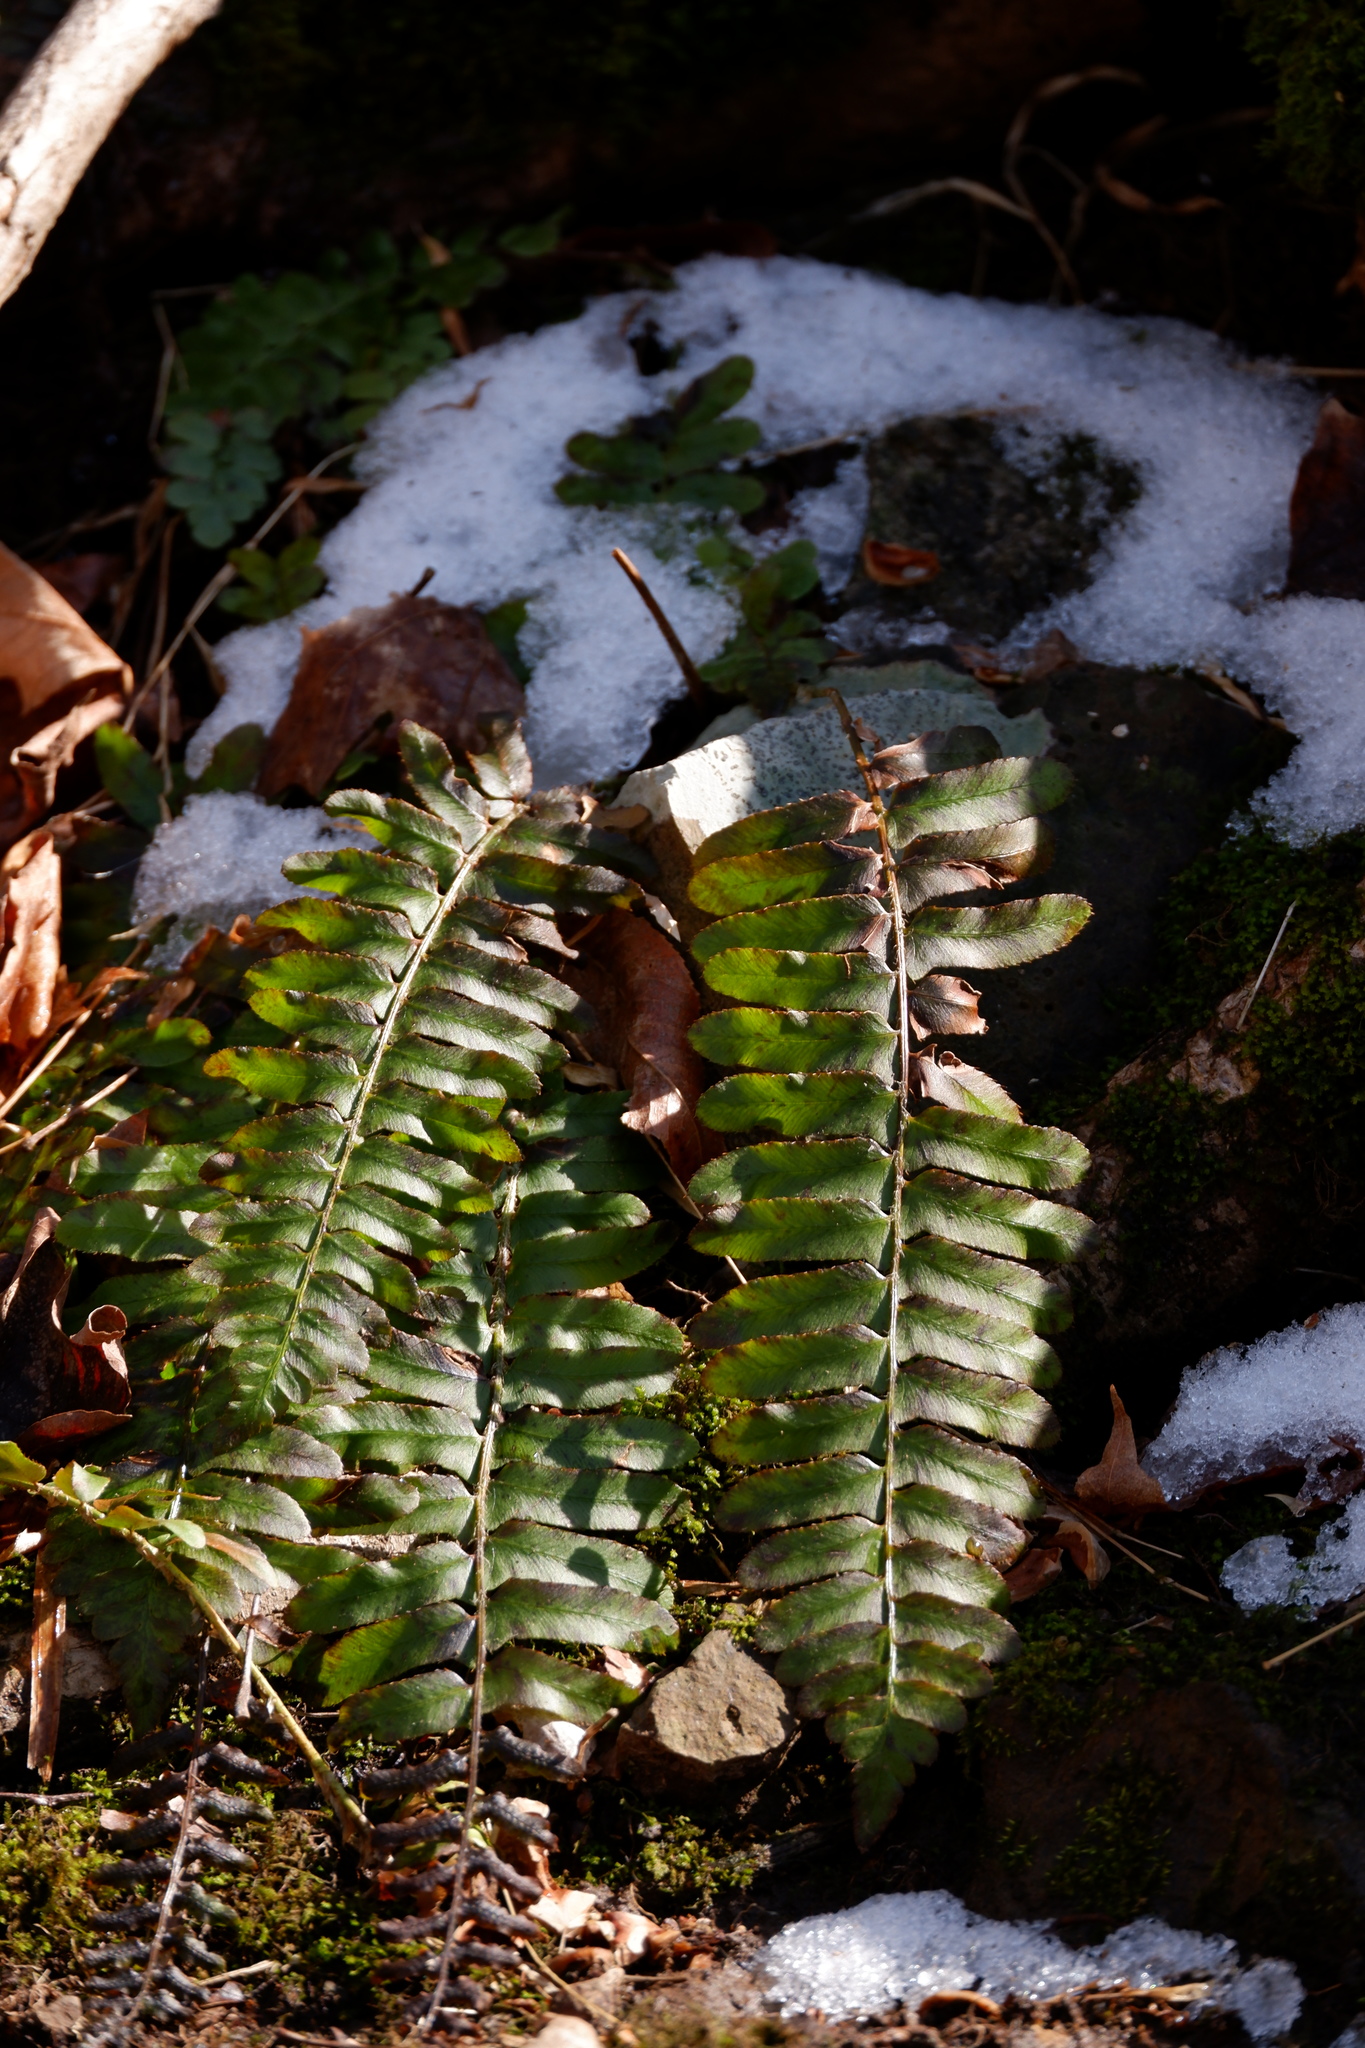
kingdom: Plantae
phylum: Tracheophyta
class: Polypodiopsida
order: Polypodiales
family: Dryopteridaceae
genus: Polystichum
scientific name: Polystichum acrostichoides
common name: Christmas fern
